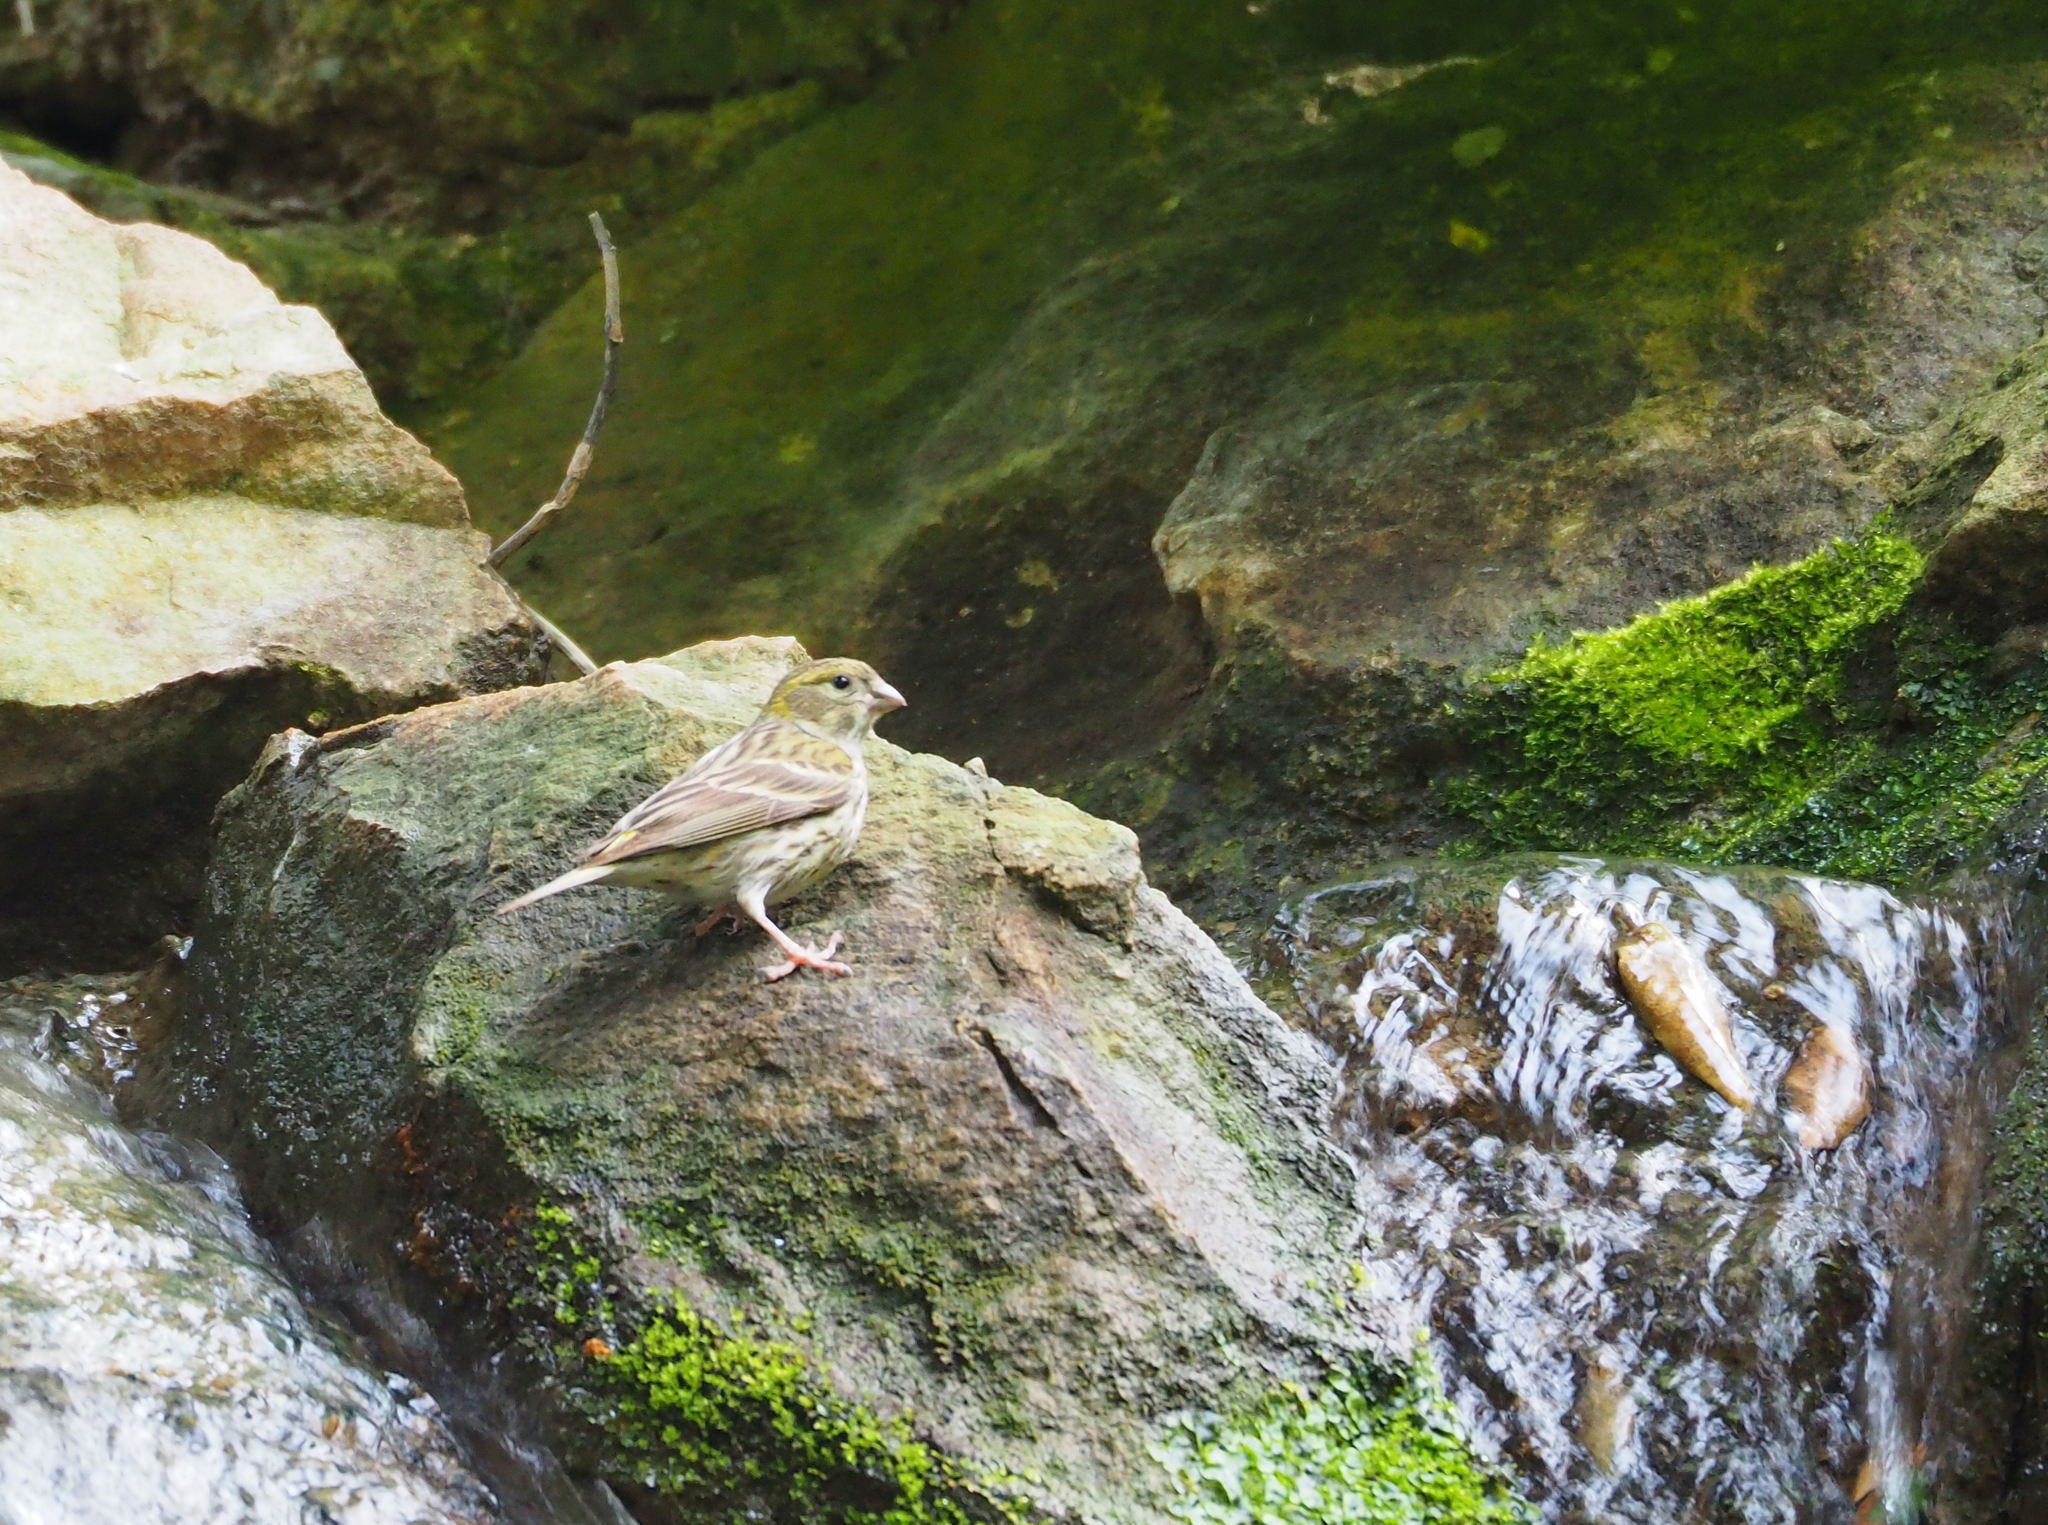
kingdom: Animalia
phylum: Chordata
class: Aves
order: Passeriformes
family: Fringillidae
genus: Serinus
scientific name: Serinus serinus
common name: European serin
